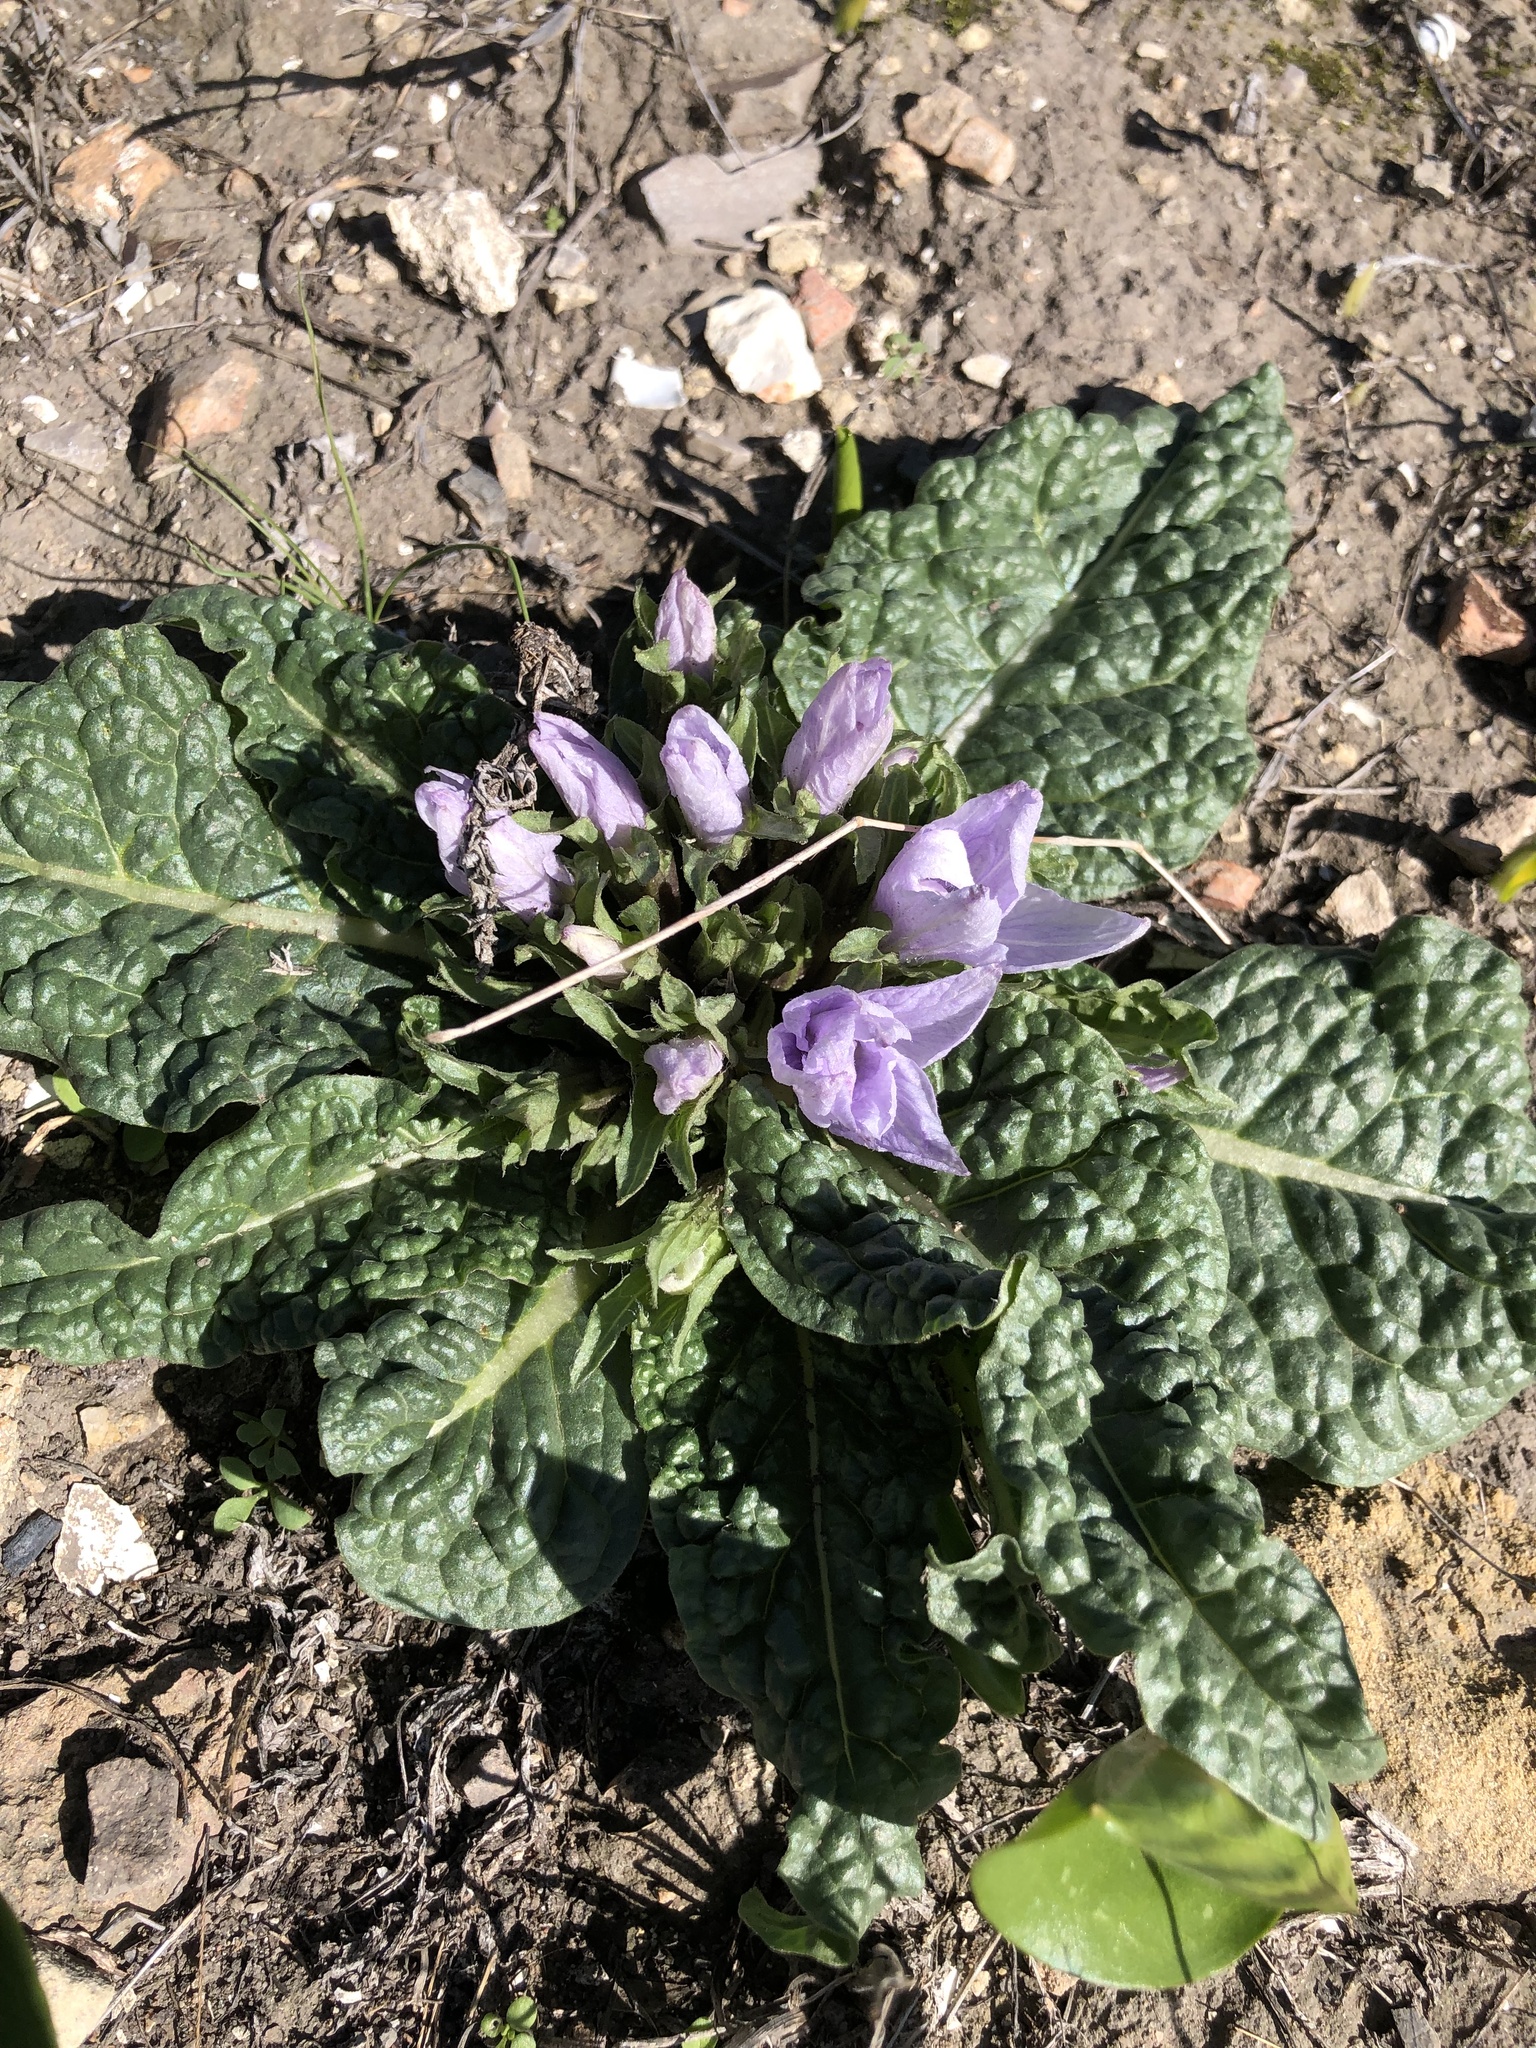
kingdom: Plantae
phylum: Tracheophyta
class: Magnoliopsida
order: Solanales
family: Solanaceae
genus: Mandragora
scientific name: Mandragora officinarum
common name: Mandrake
